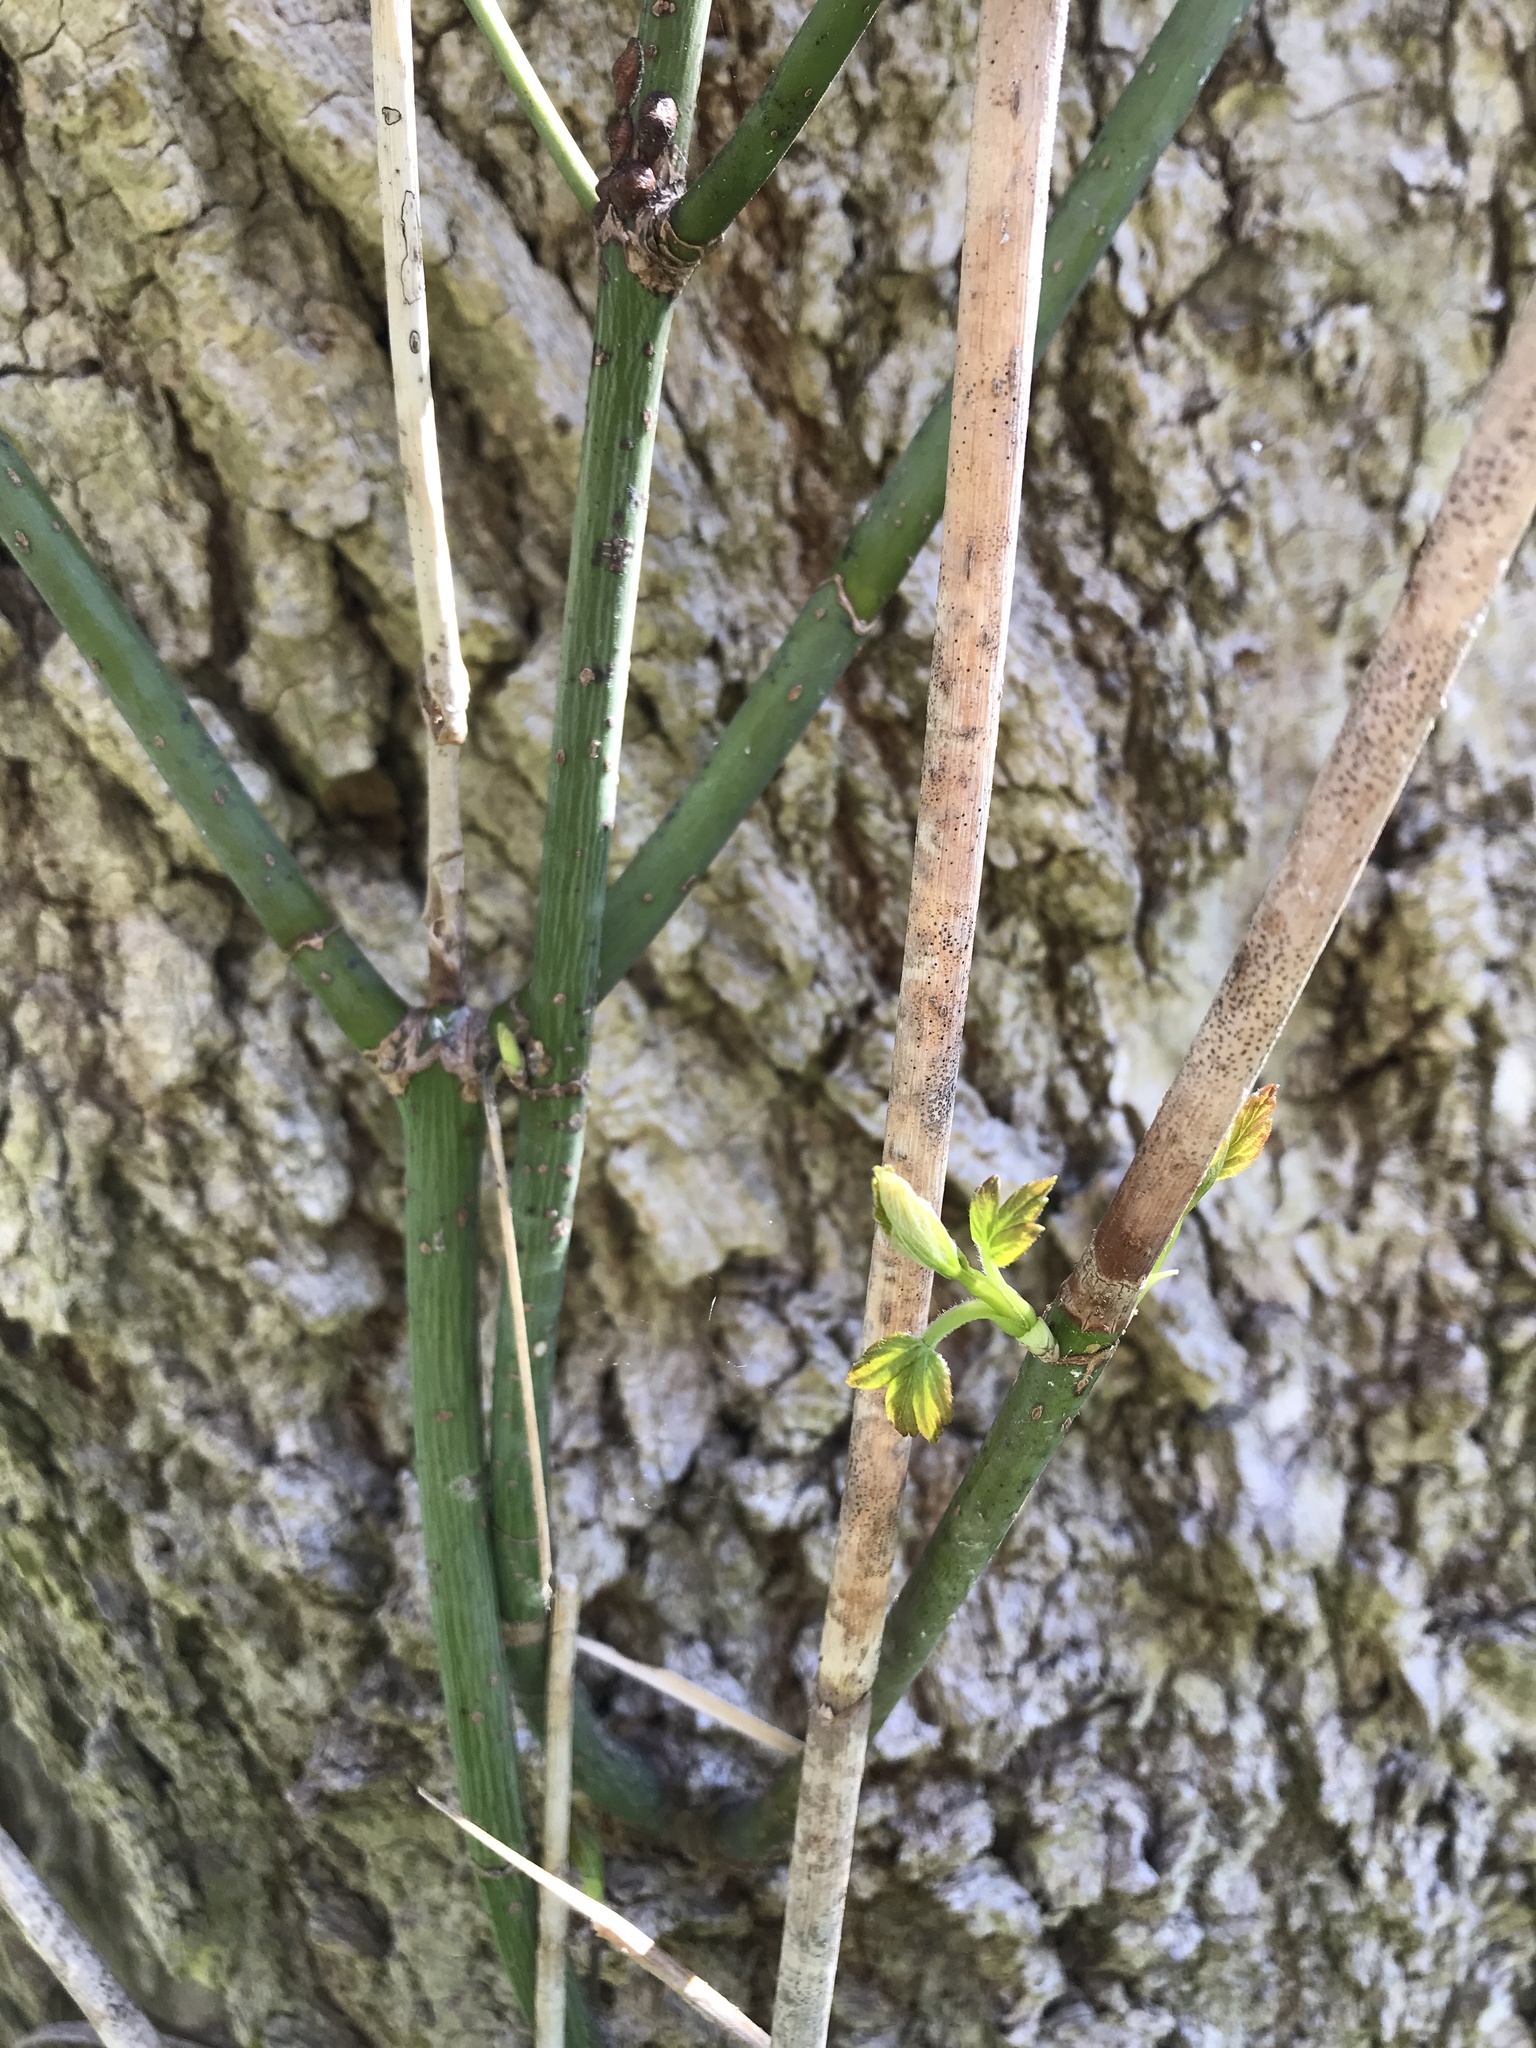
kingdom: Plantae
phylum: Tracheophyta
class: Magnoliopsida
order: Sapindales
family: Sapindaceae
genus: Acer
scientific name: Acer negundo
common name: Ashleaf maple
